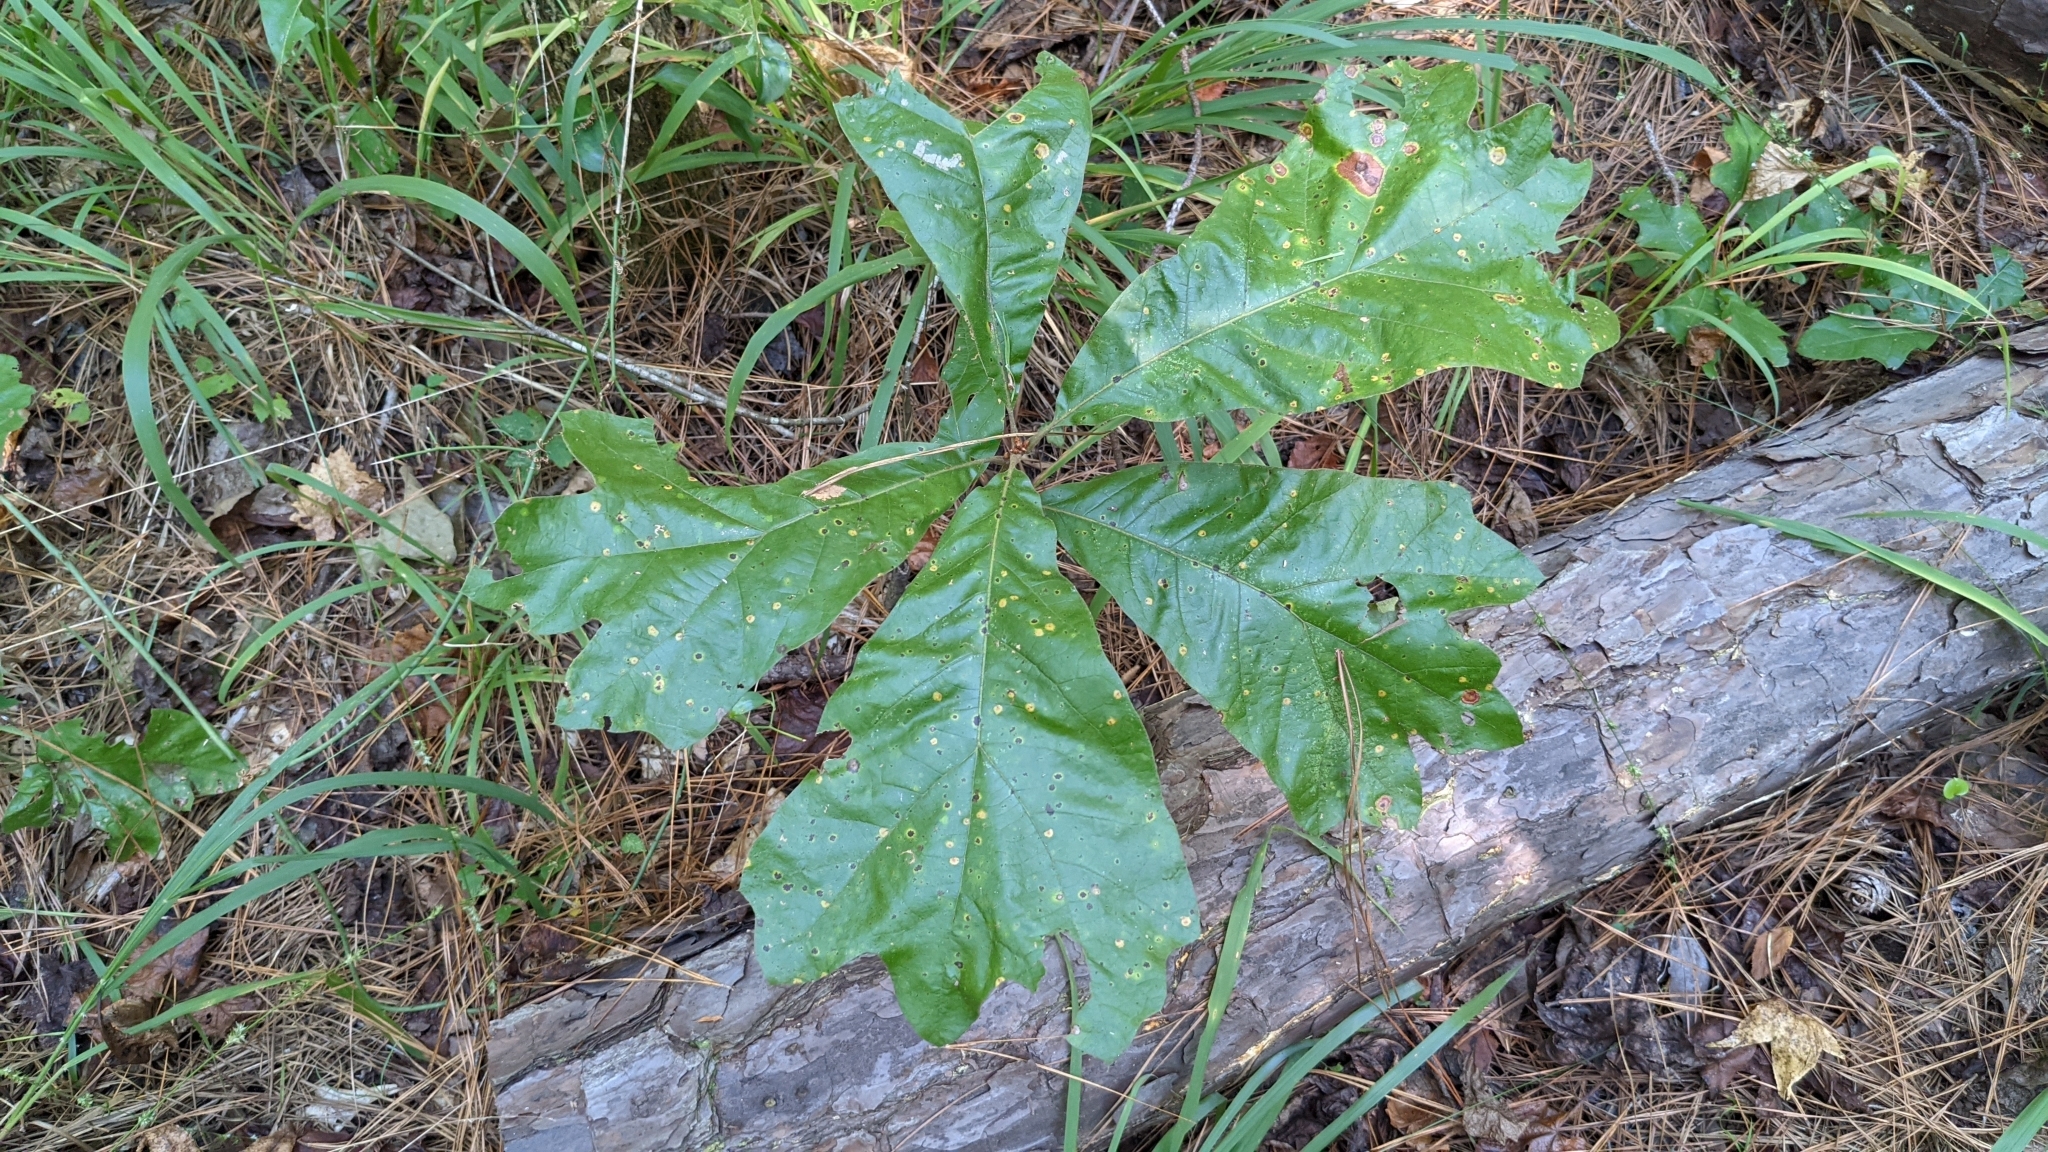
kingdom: Plantae
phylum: Tracheophyta
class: Magnoliopsida
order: Fagales
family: Fagaceae
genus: Quercus
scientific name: Quercus falcata
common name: Southern red oak
